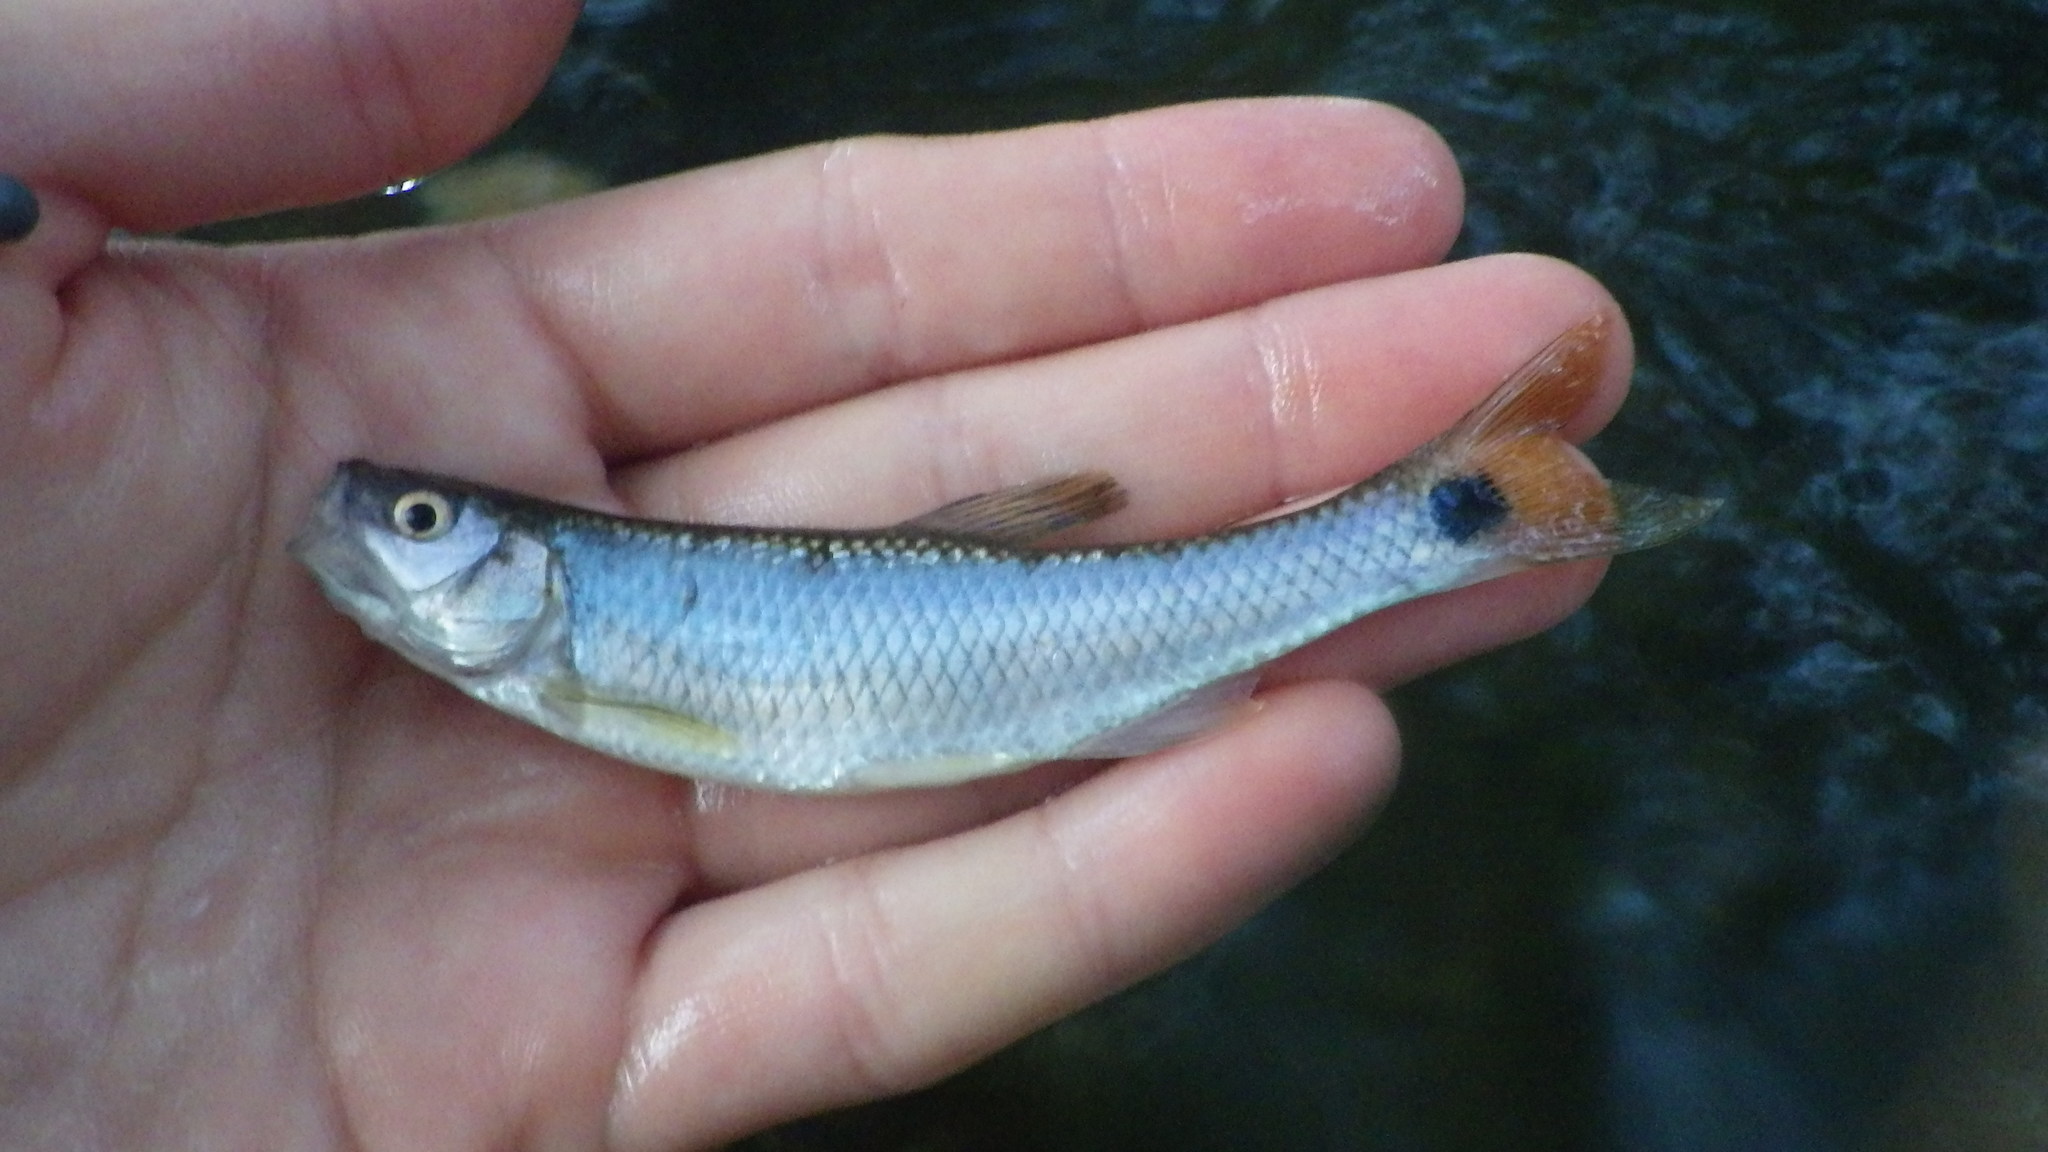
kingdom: Animalia
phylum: Chordata
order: Cypriniformes
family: Cyprinidae
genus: Cyprinella
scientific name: Cyprinella venusta
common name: Blacktail shiner
